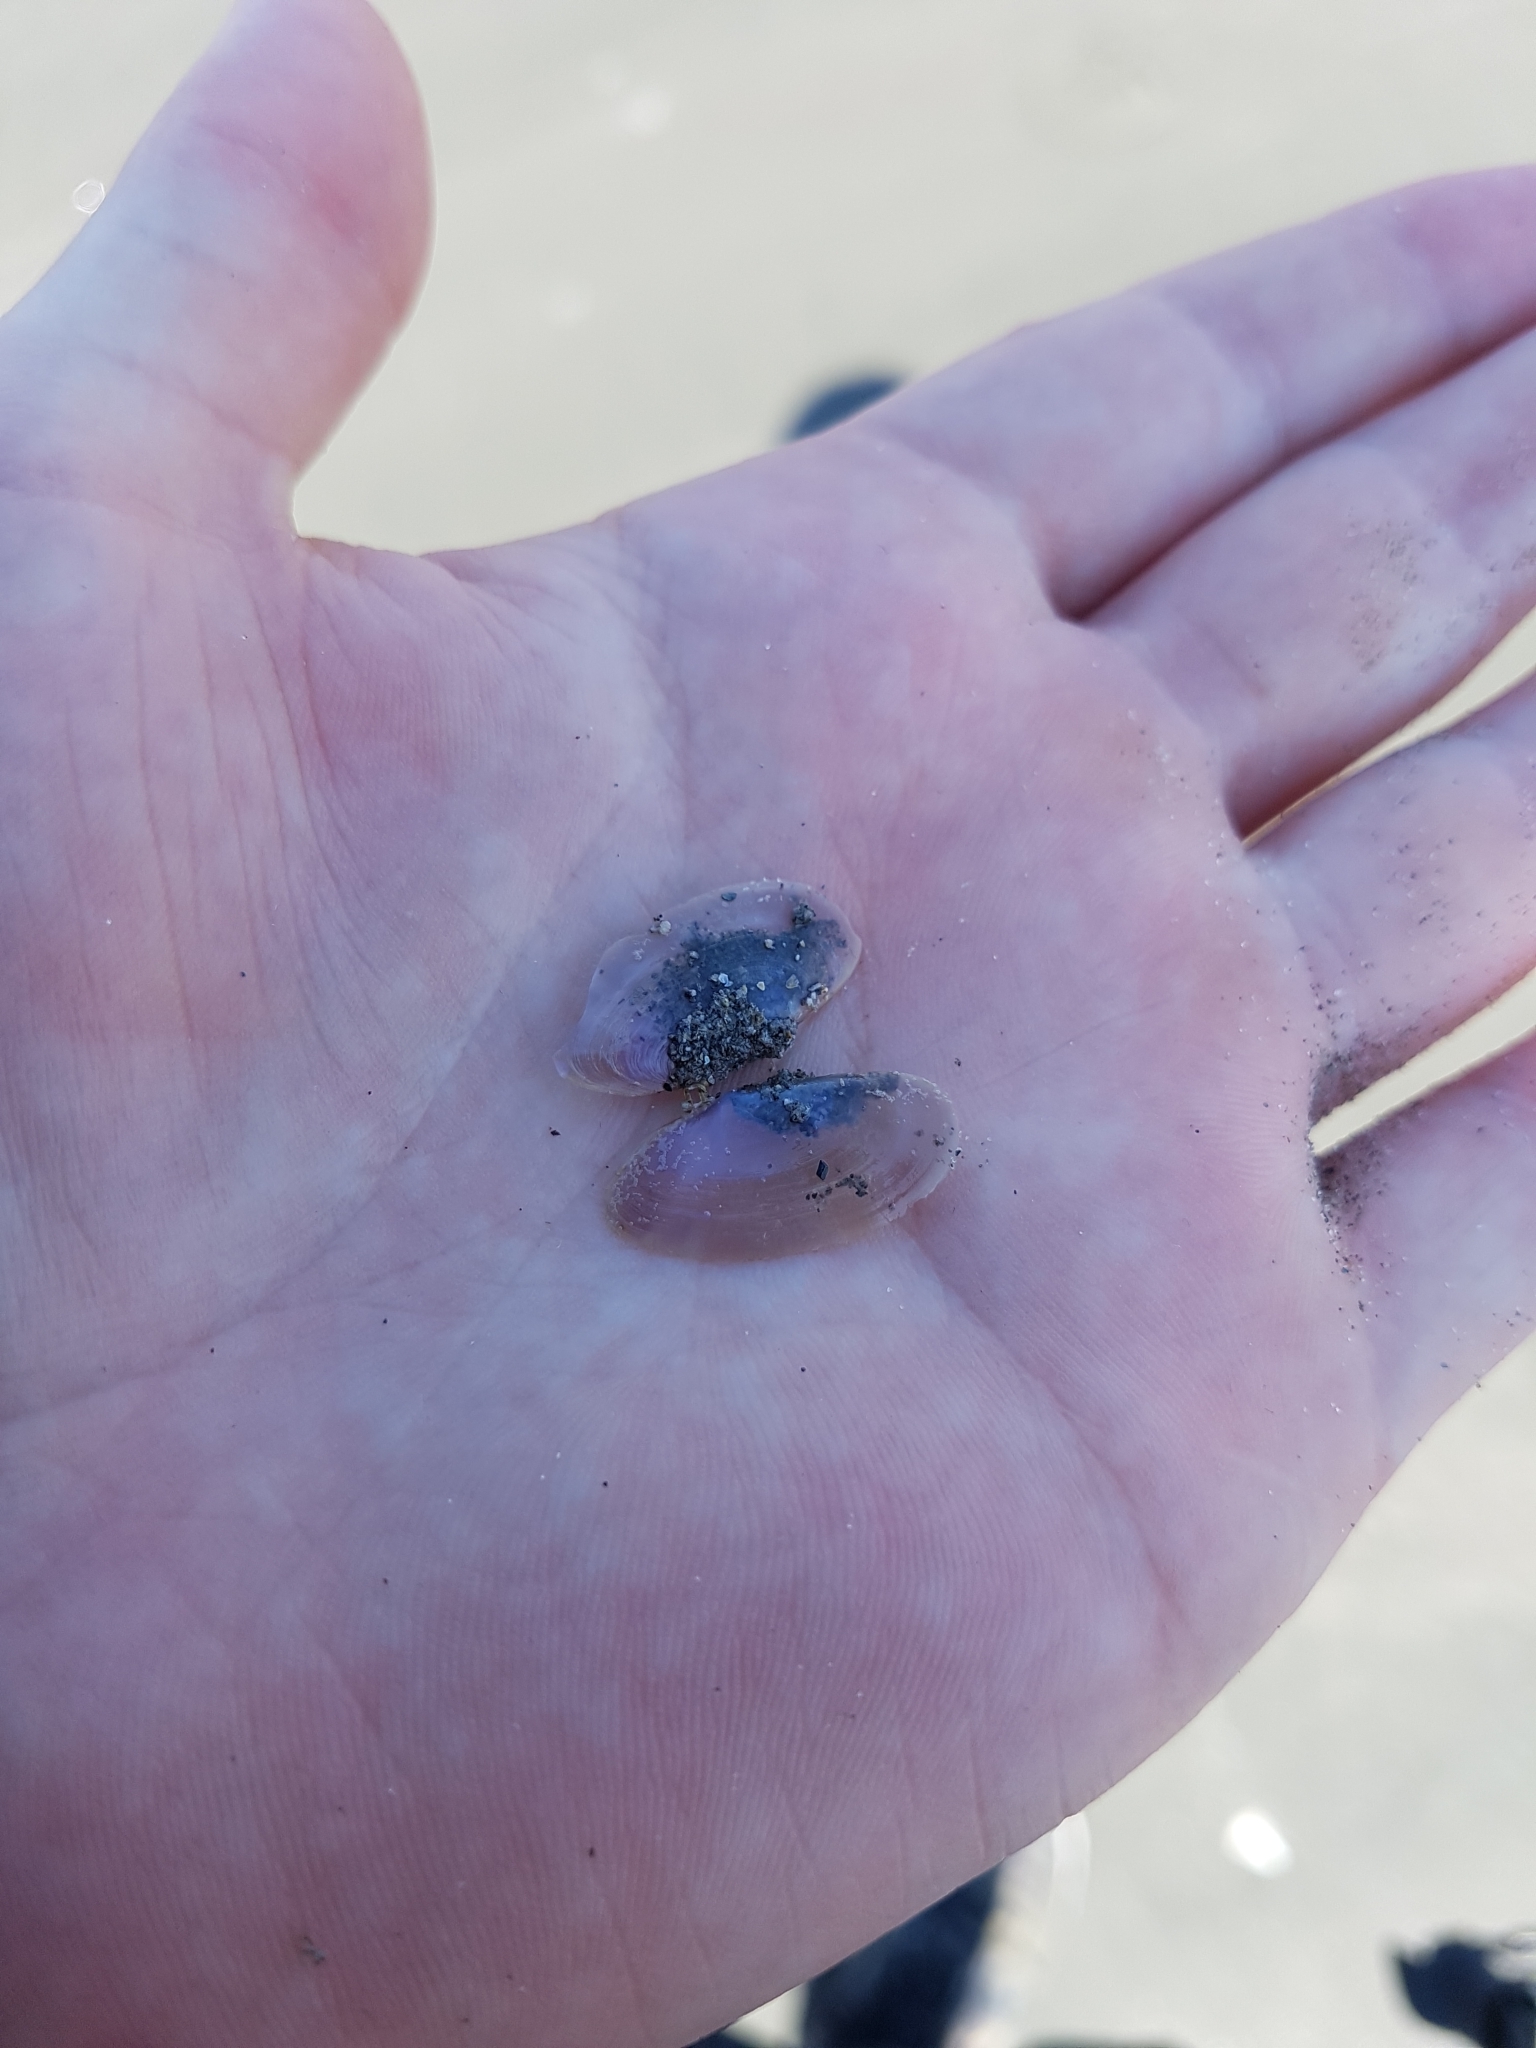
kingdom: Animalia
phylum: Mollusca
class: Bivalvia
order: Cardiida
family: Psammobiidae
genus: Hiatula
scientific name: Hiatula nitida
